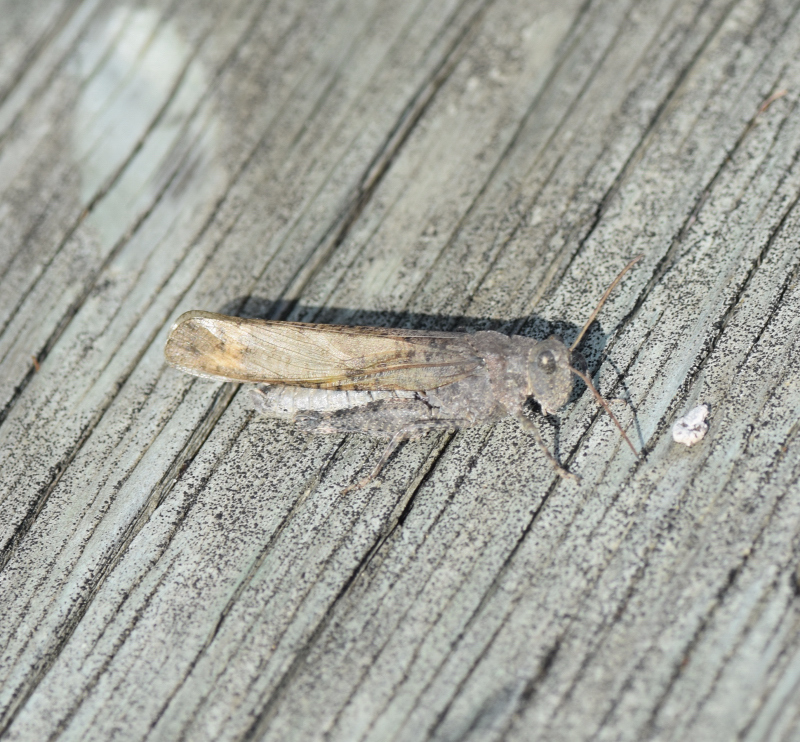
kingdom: Animalia
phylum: Arthropoda
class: Insecta
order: Orthoptera
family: Acrididae
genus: Dissosteira
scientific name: Dissosteira carolina
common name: Carolina grasshopper
